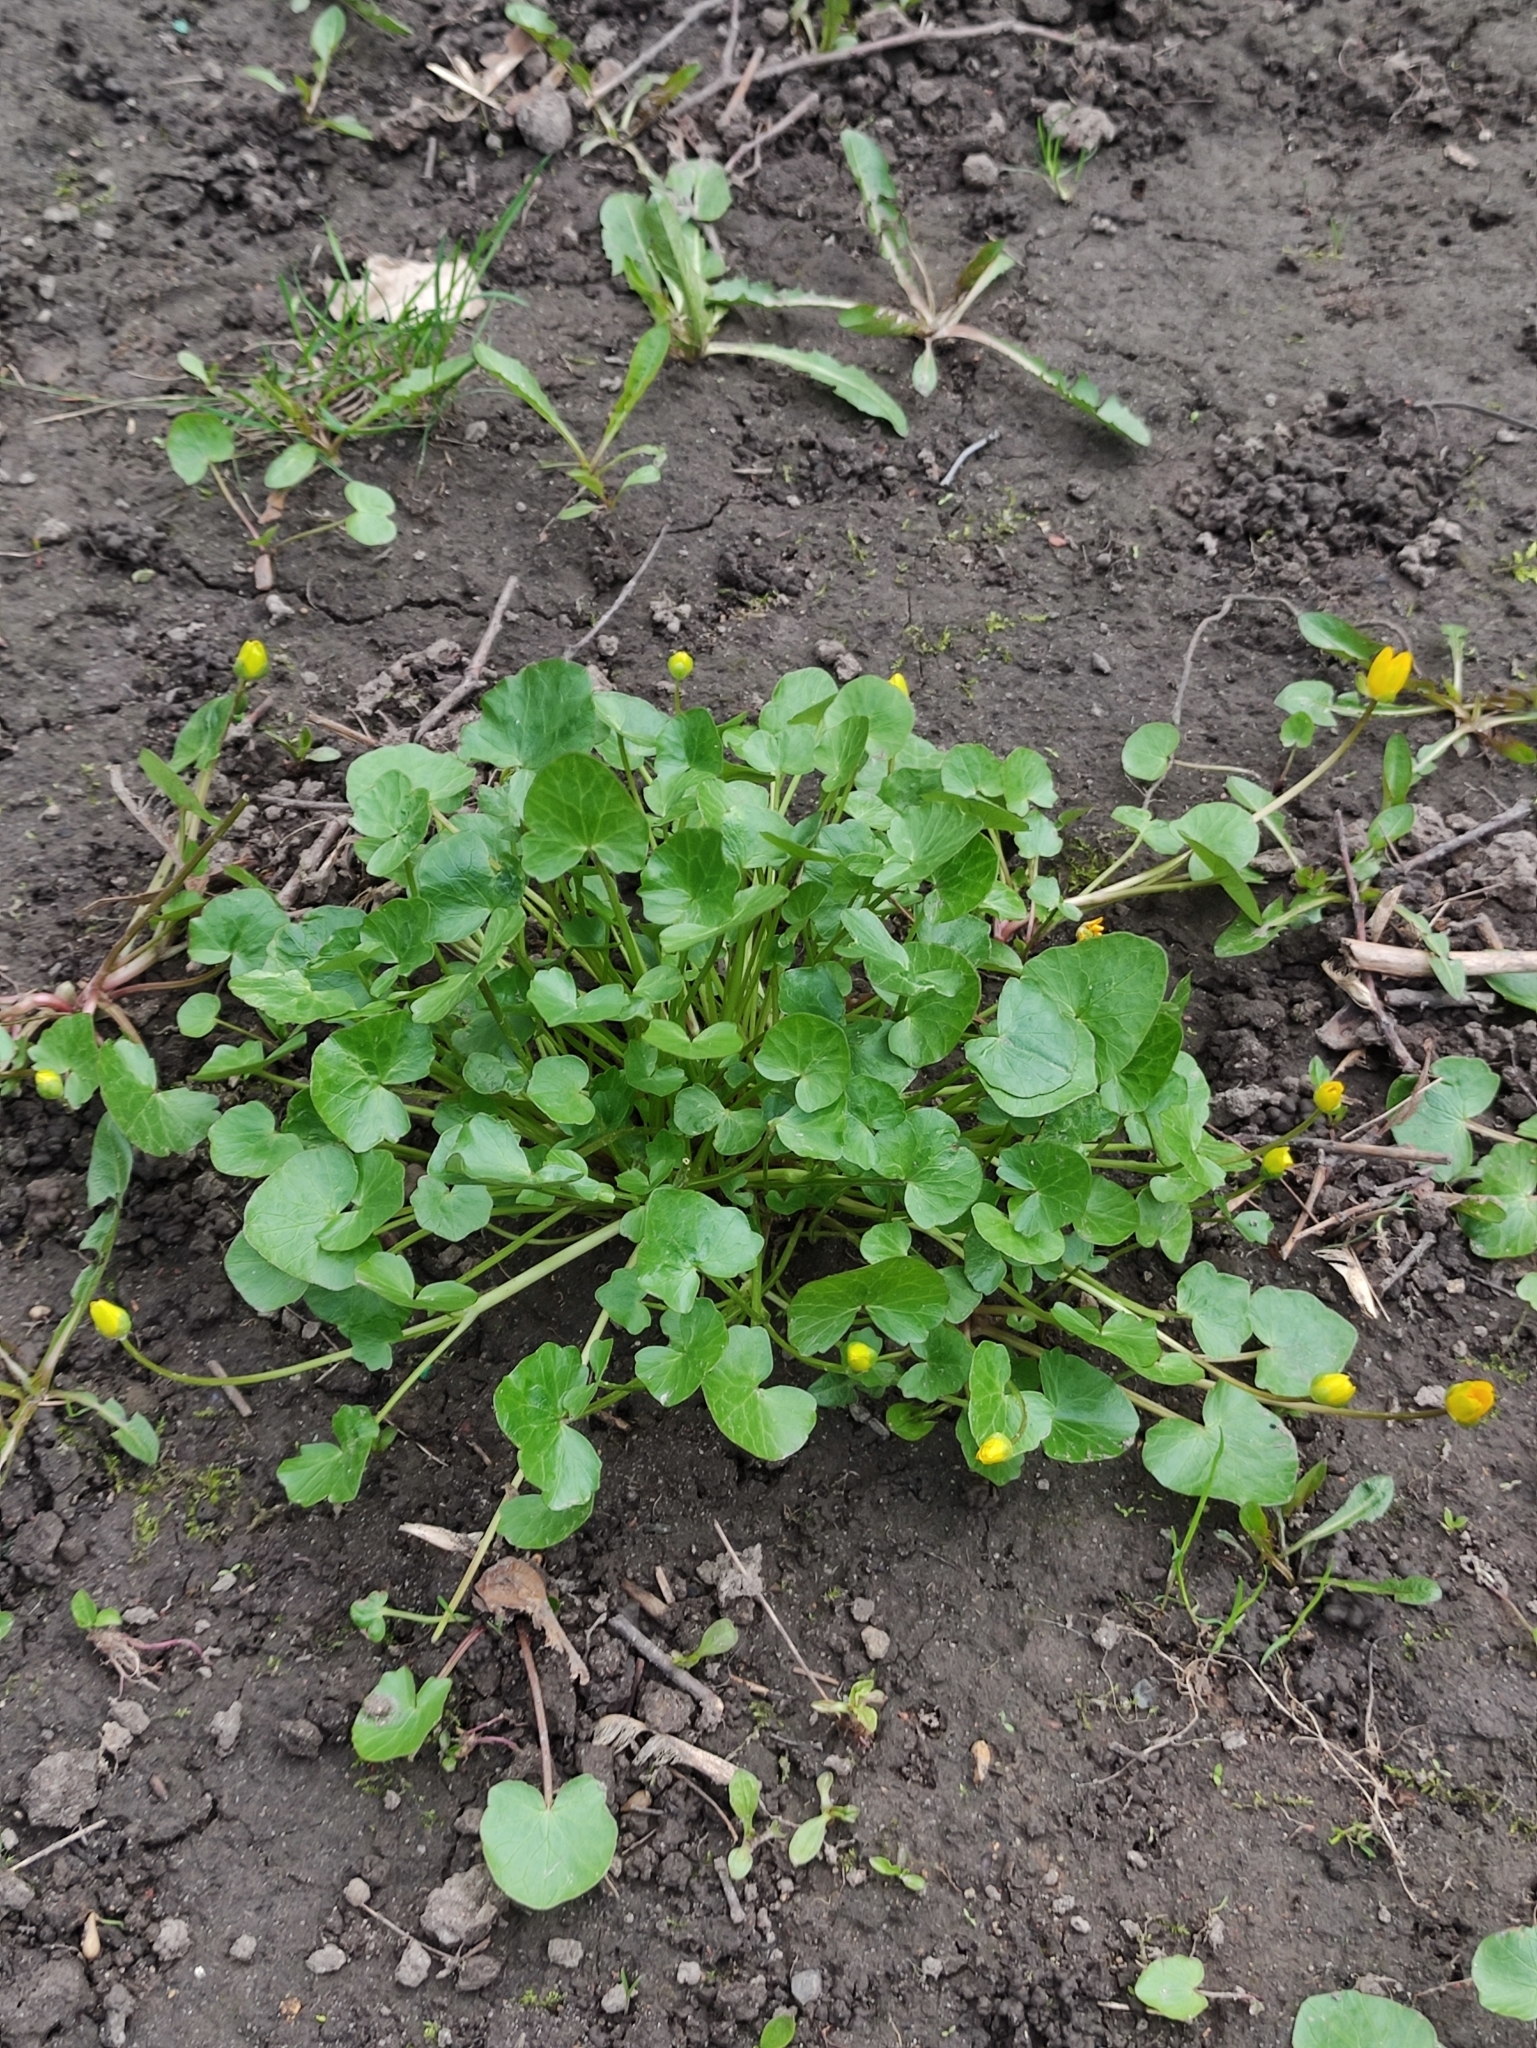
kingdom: Plantae
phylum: Tracheophyta
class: Magnoliopsida
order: Ranunculales
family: Ranunculaceae
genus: Ficaria
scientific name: Ficaria verna
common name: Lesser celandine
